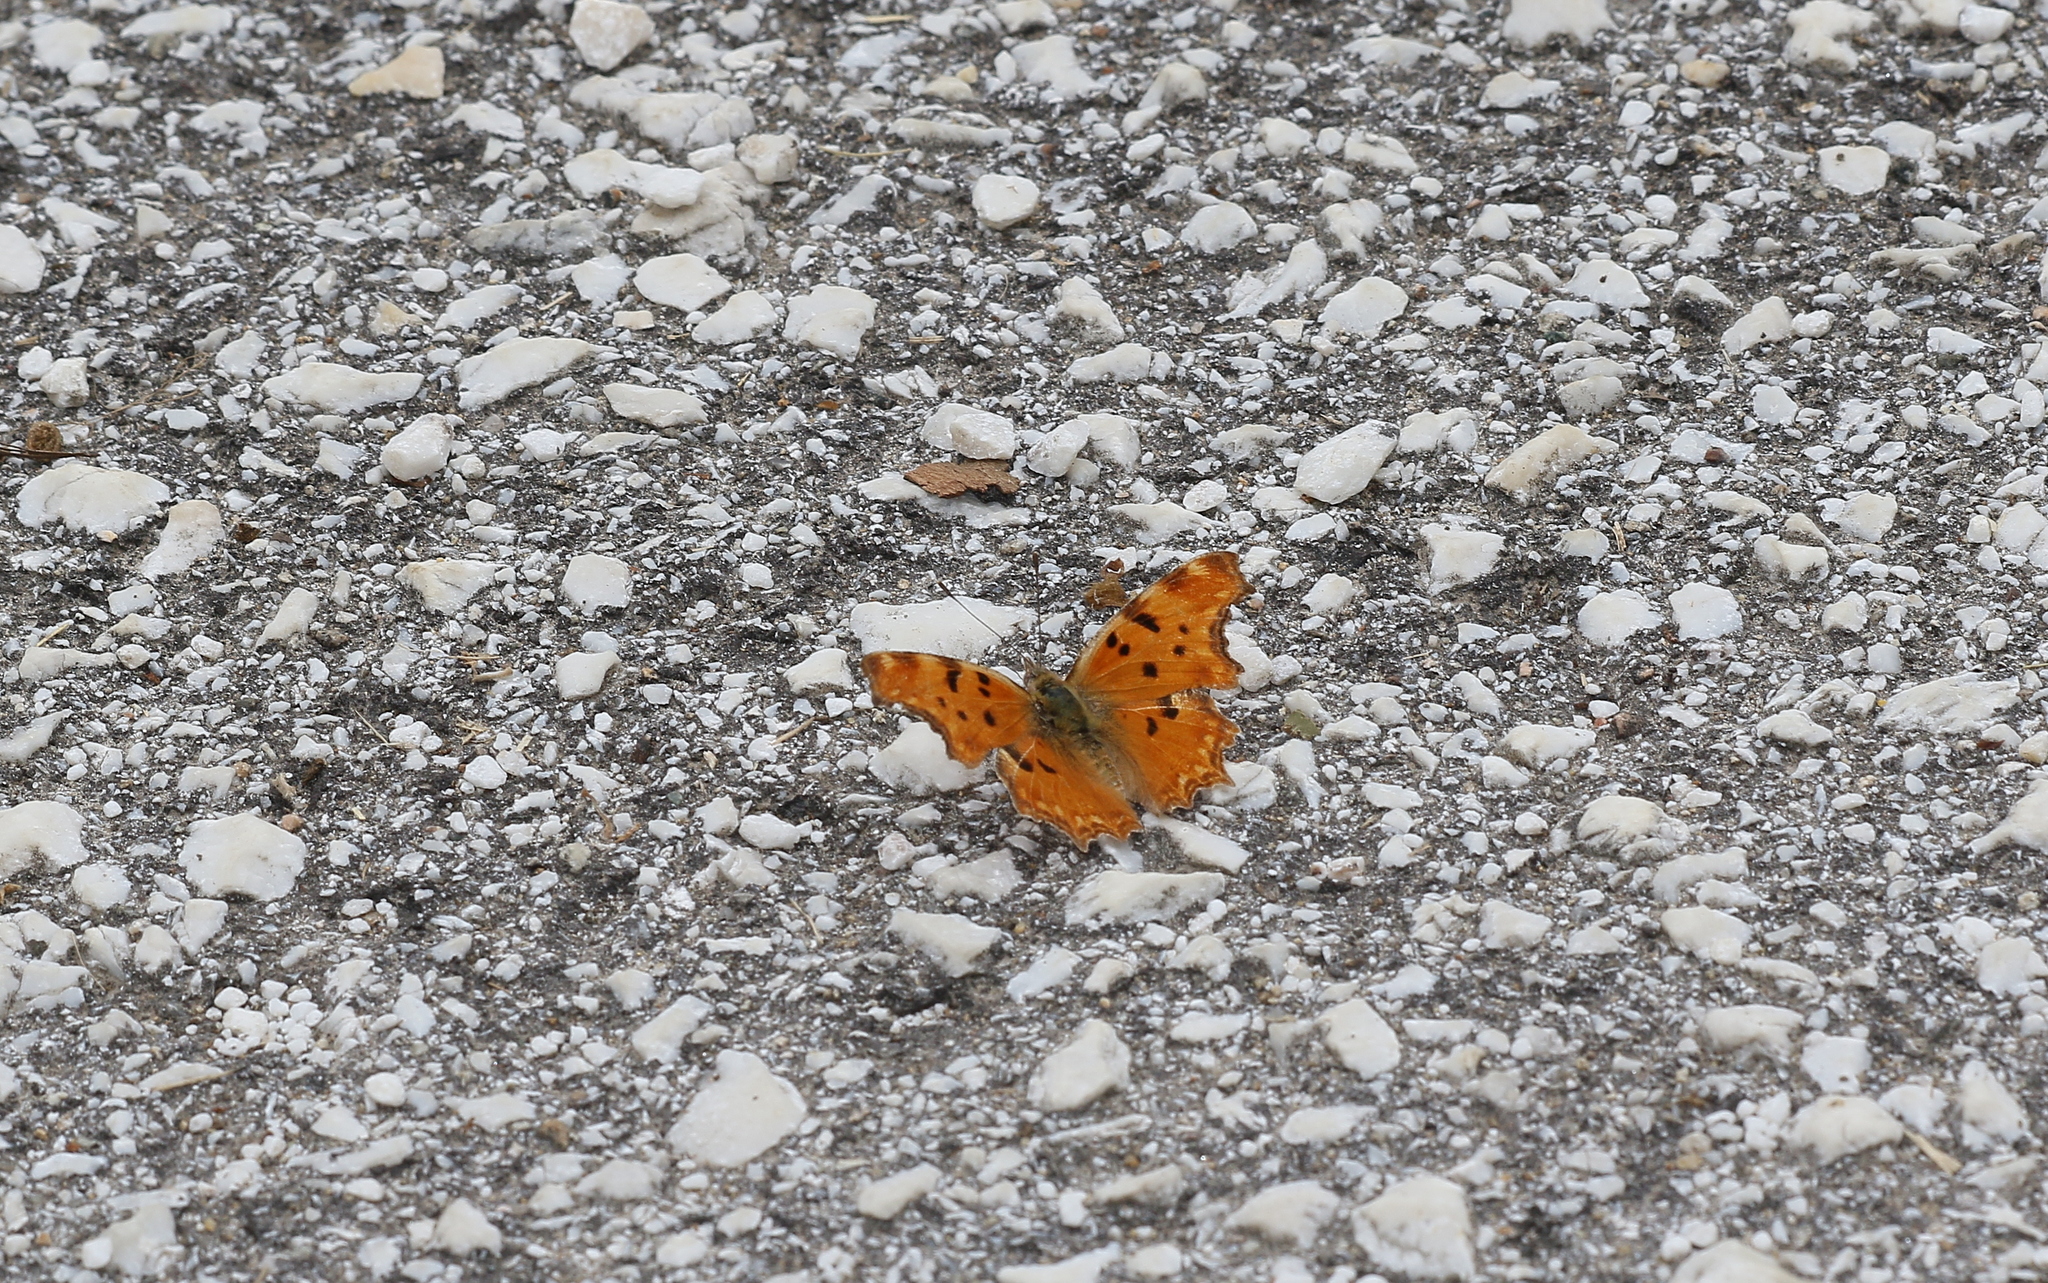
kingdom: Animalia
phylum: Arthropoda
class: Insecta
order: Lepidoptera
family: Nymphalidae
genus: Polygonia
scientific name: Polygonia egea
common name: Southern comma
